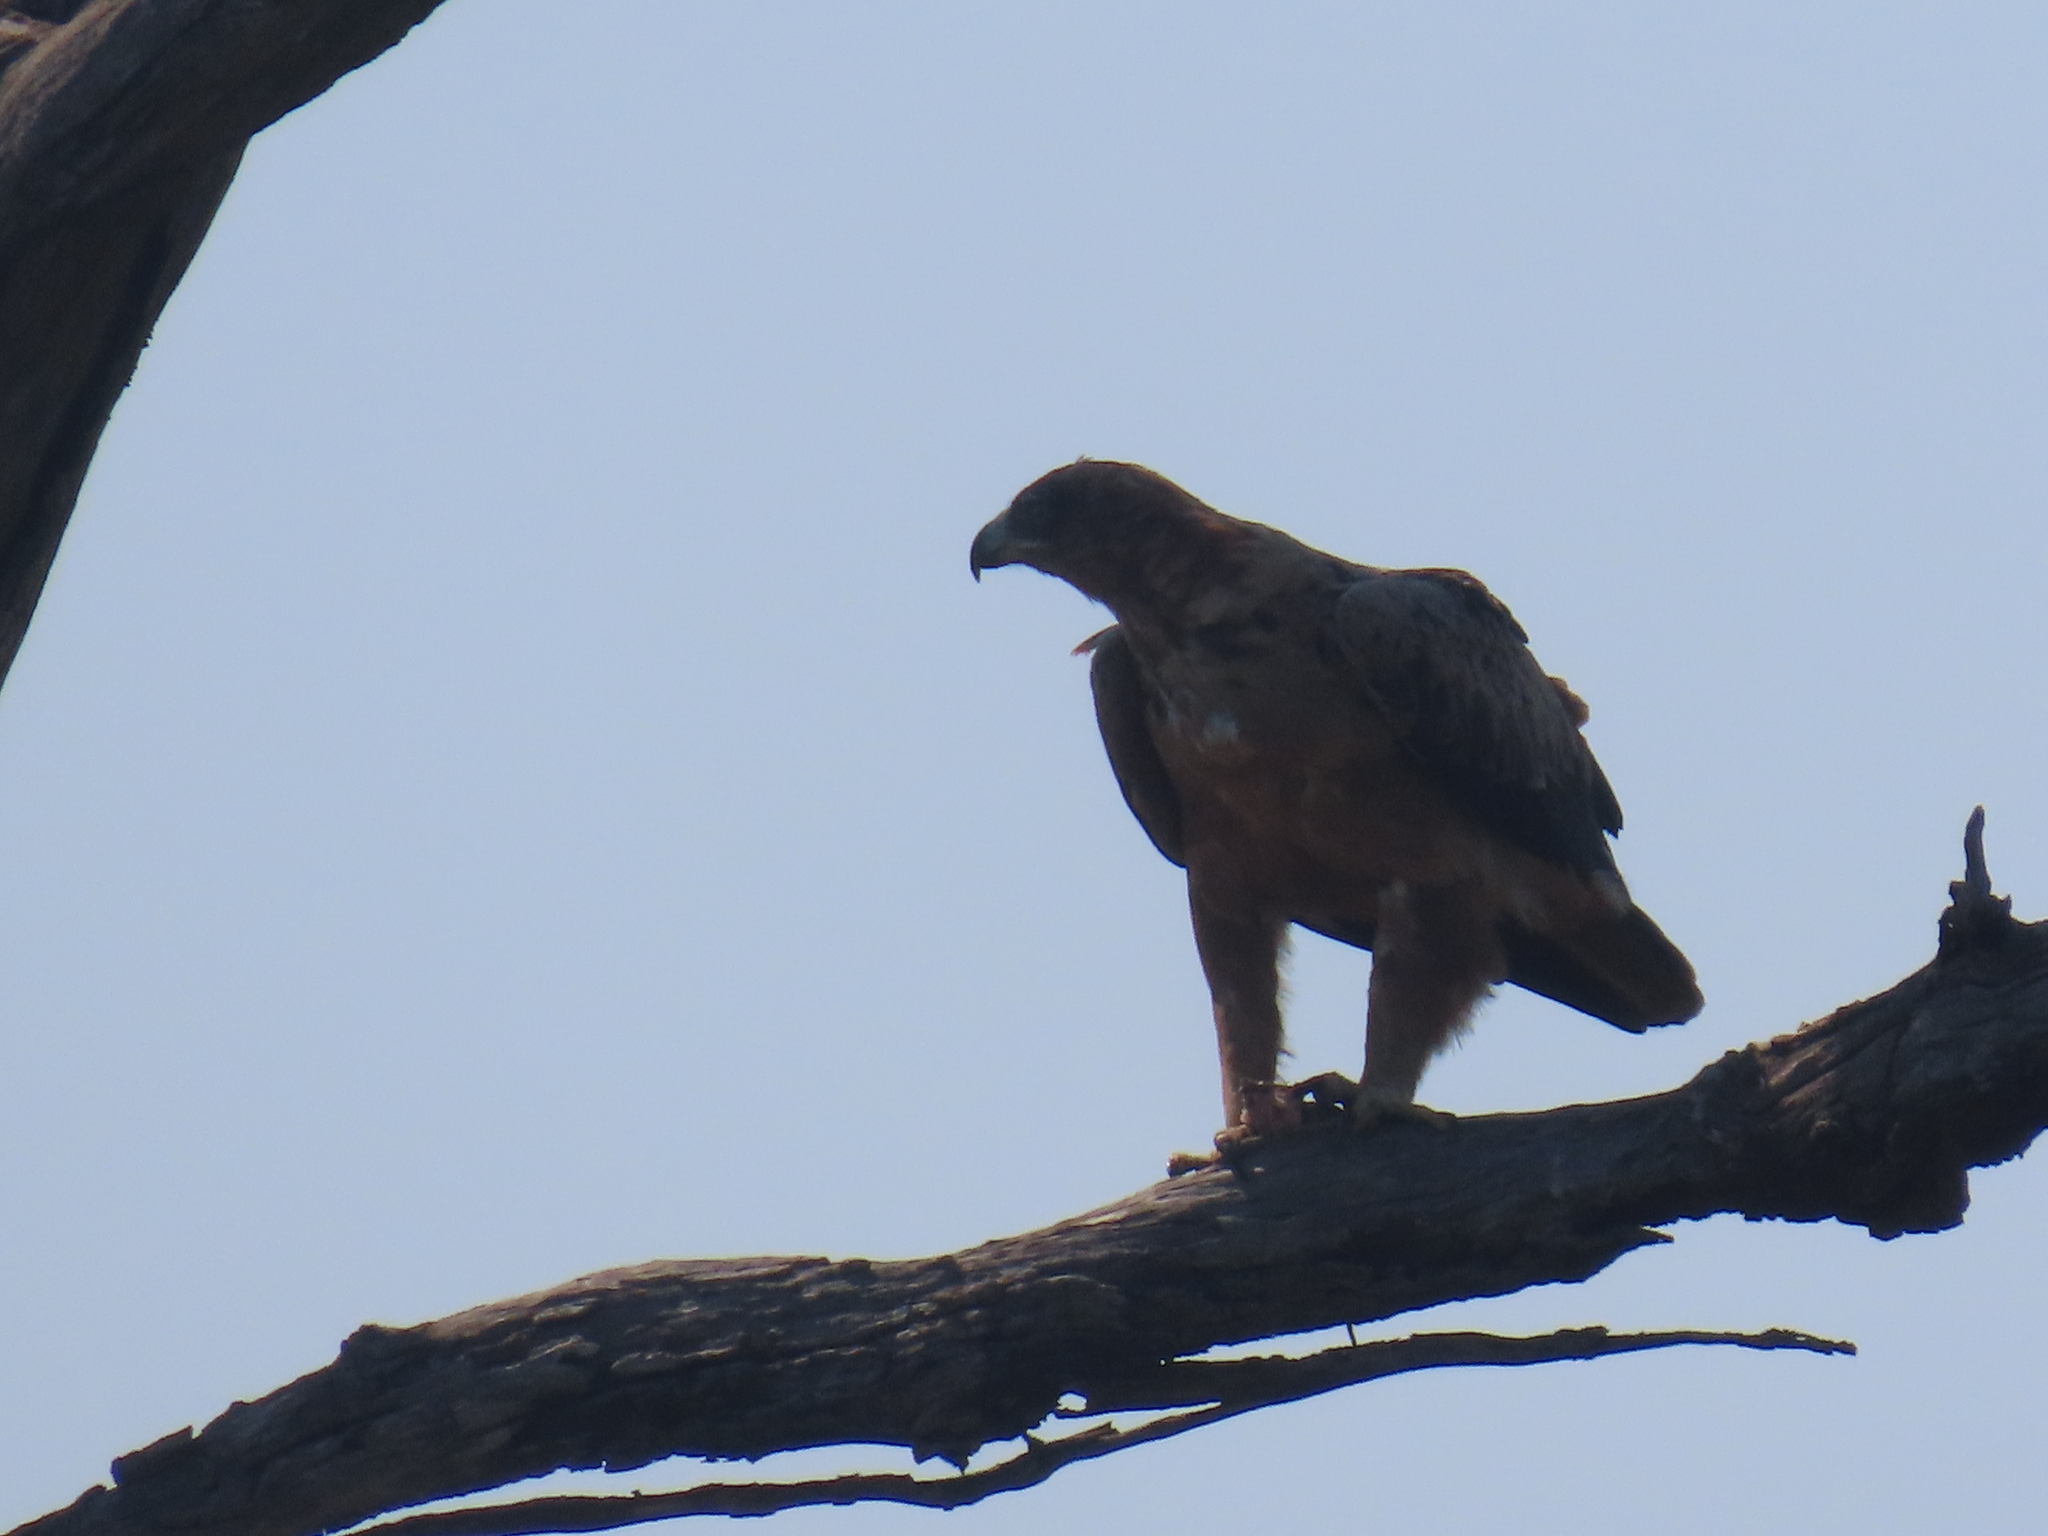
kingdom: Animalia
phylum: Chordata
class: Aves
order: Accipitriformes
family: Accipitridae
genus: Aquila
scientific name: Aquila rapax
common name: Tawny eagle
